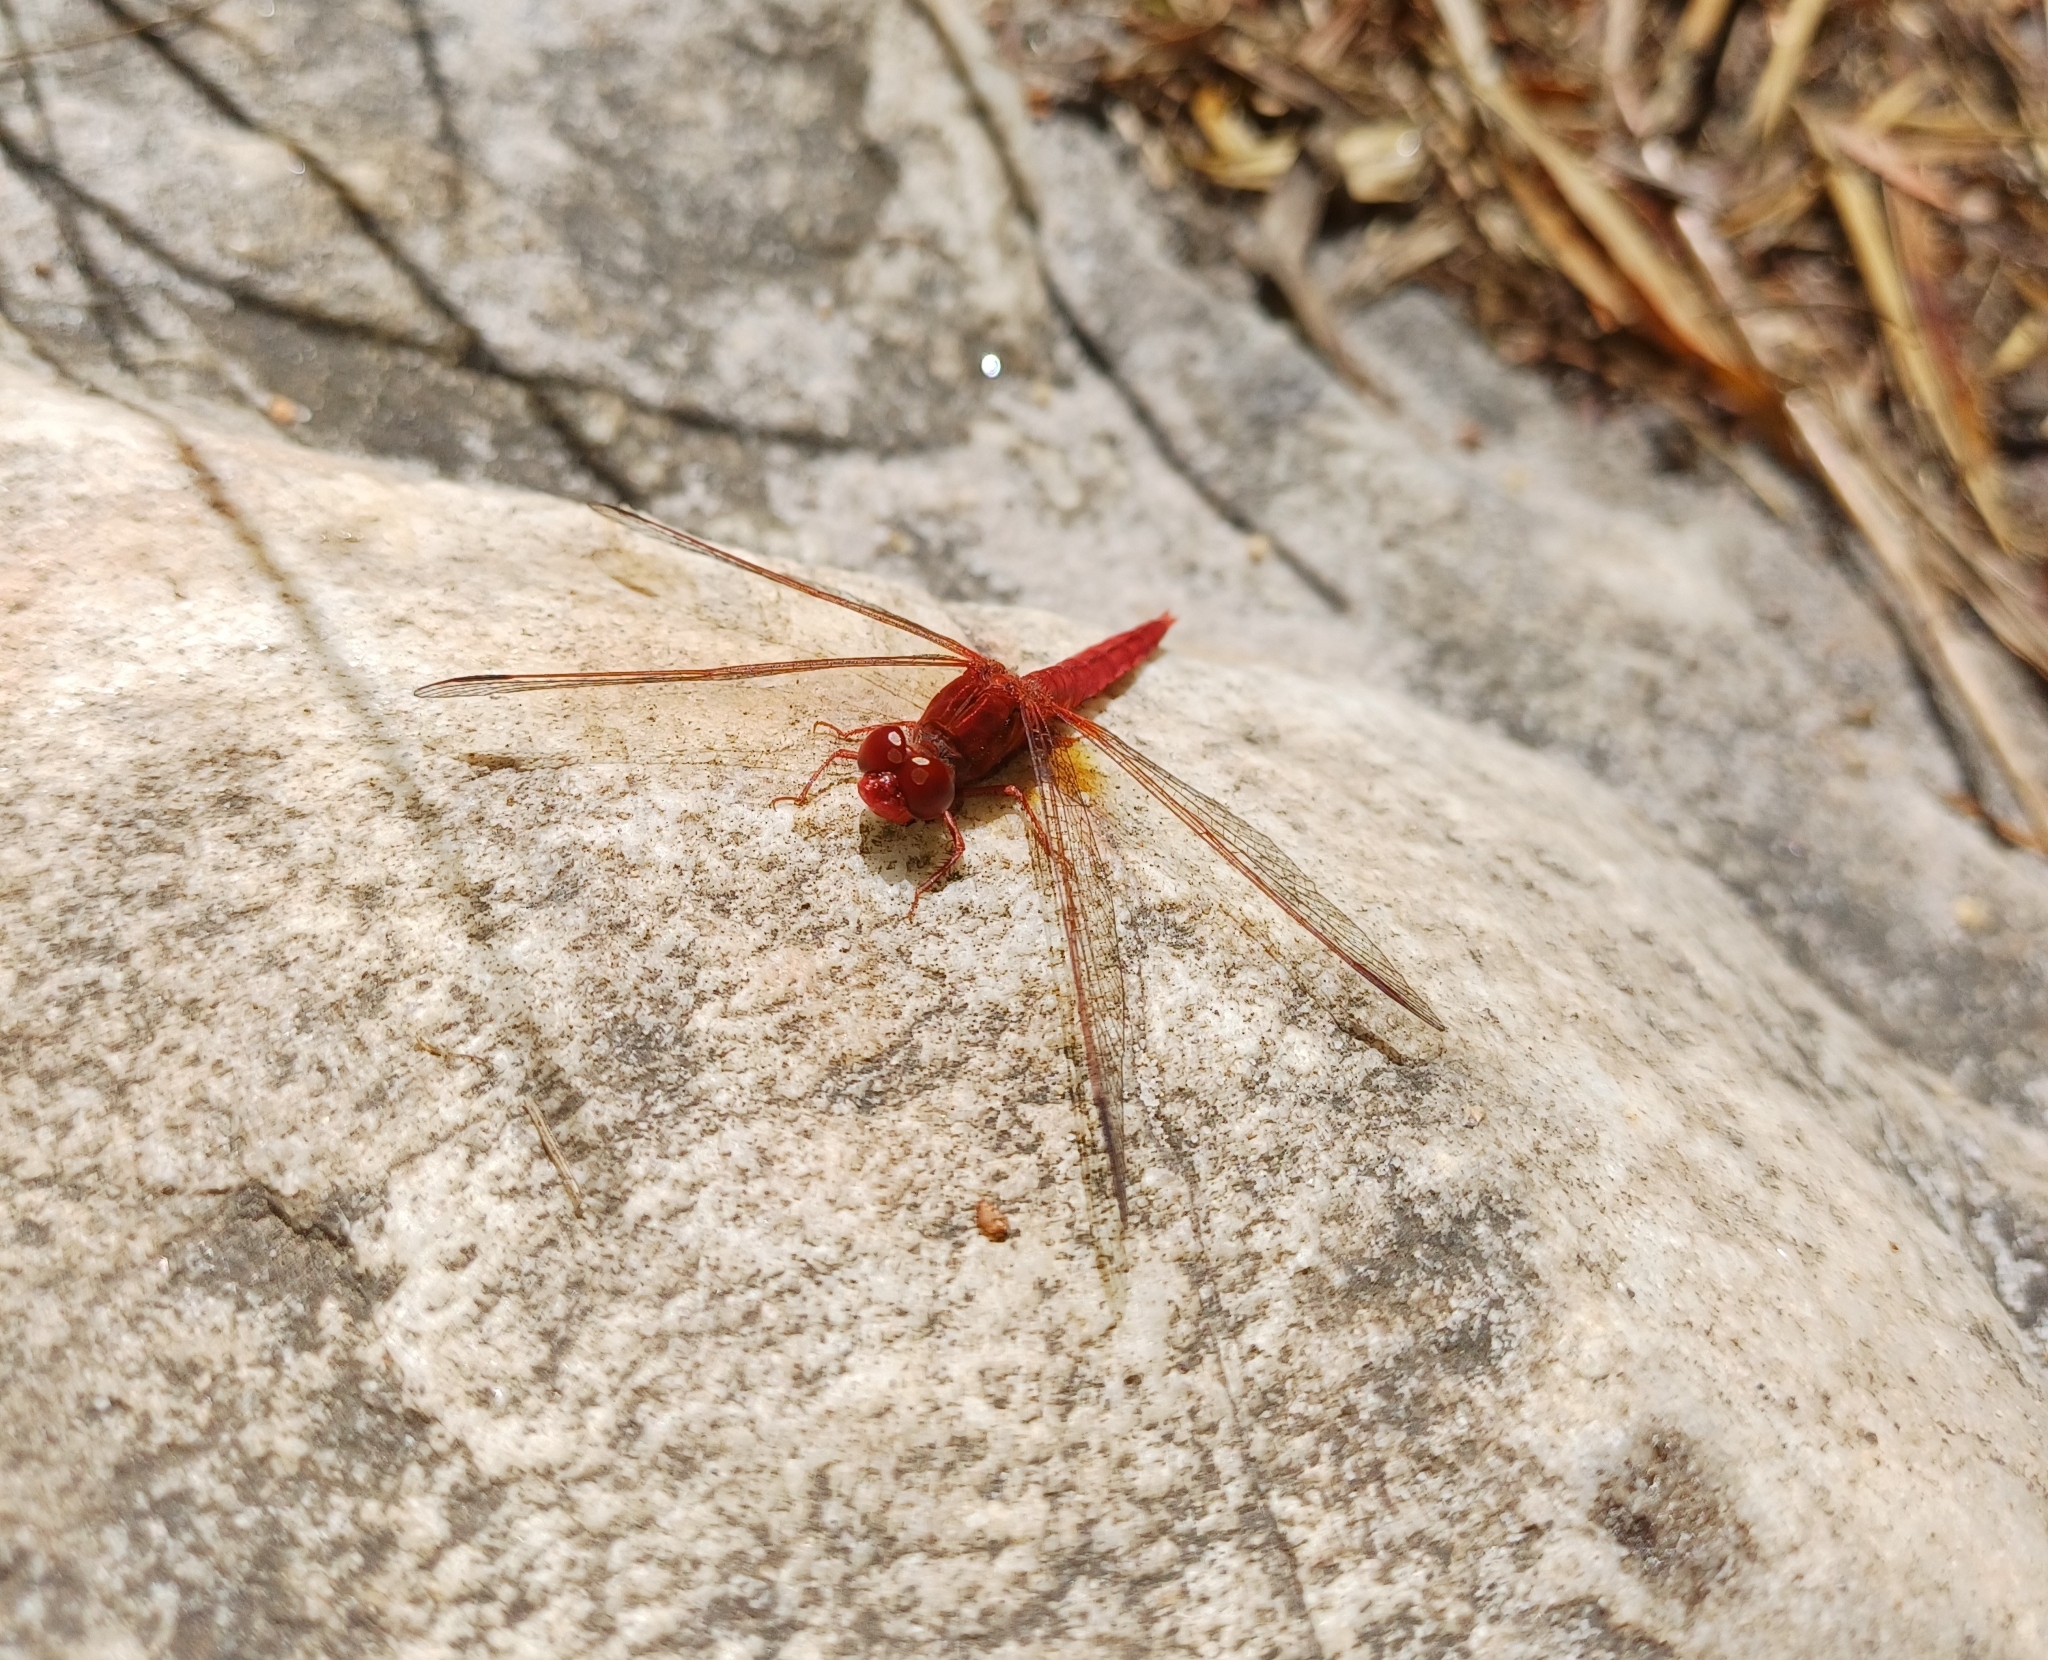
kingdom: Animalia
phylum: Arthropoda
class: Insecta
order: Odonata
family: Libellulidae
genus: Crocothemis
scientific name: Crocothemis sanguinolenta
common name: Little scarlet
